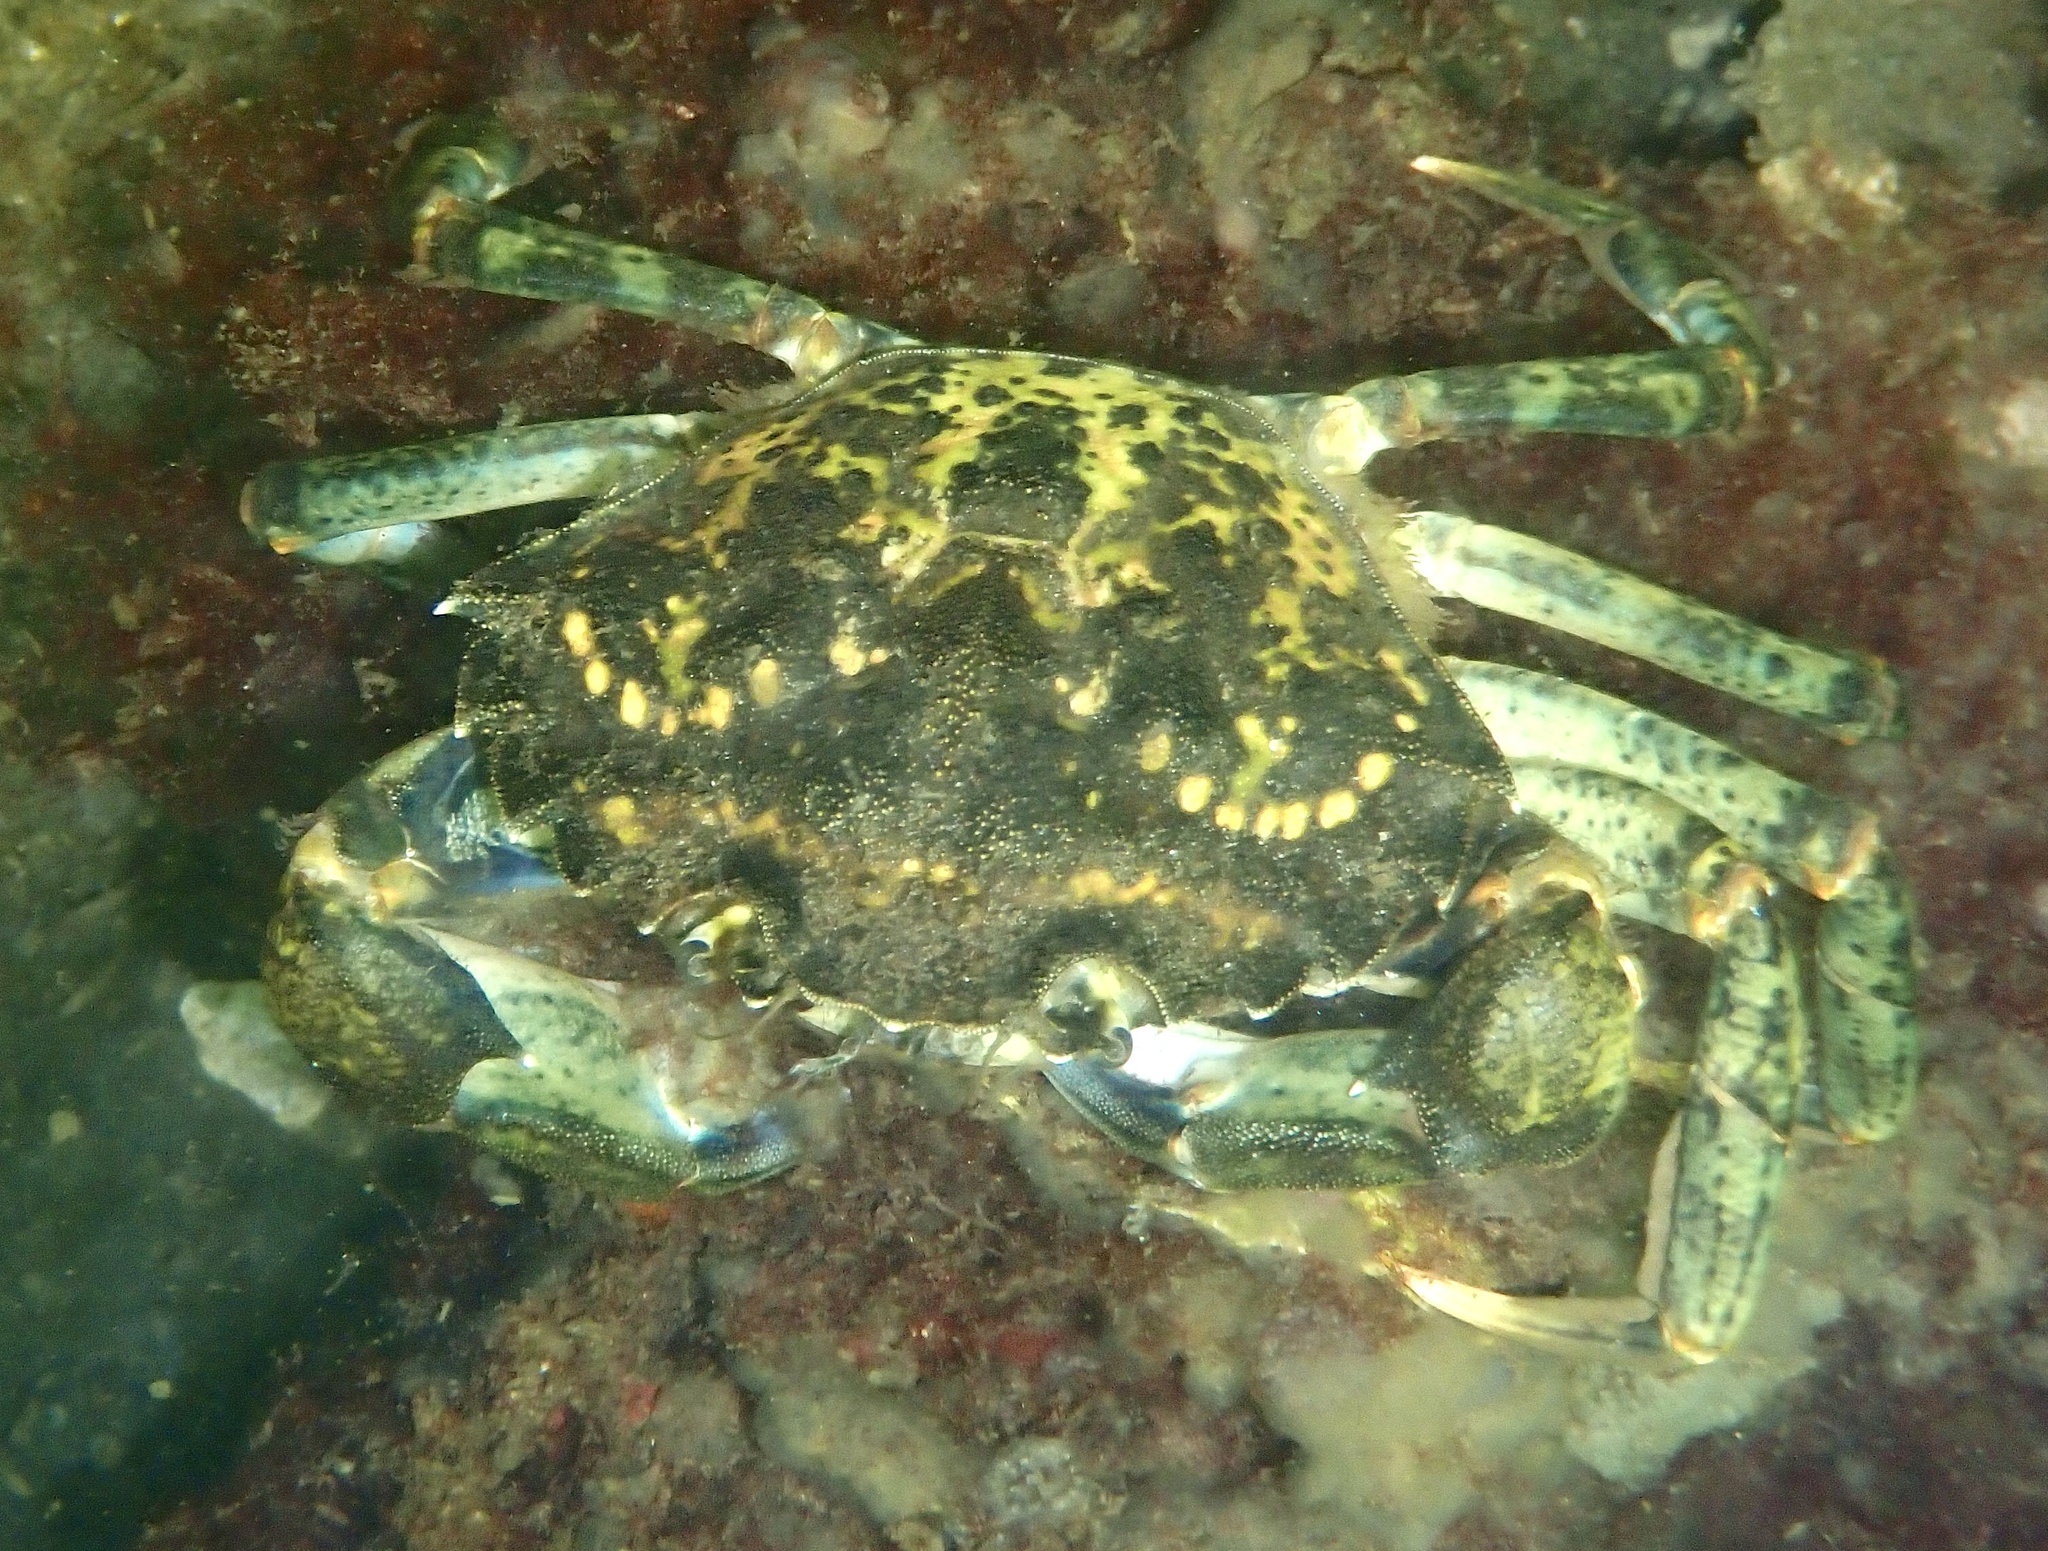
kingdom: Animalia
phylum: Arthropoda
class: Malacostraca
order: Decapoda
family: Carcinidae
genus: Carcinus
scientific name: Carcinus maenas
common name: European green crab
